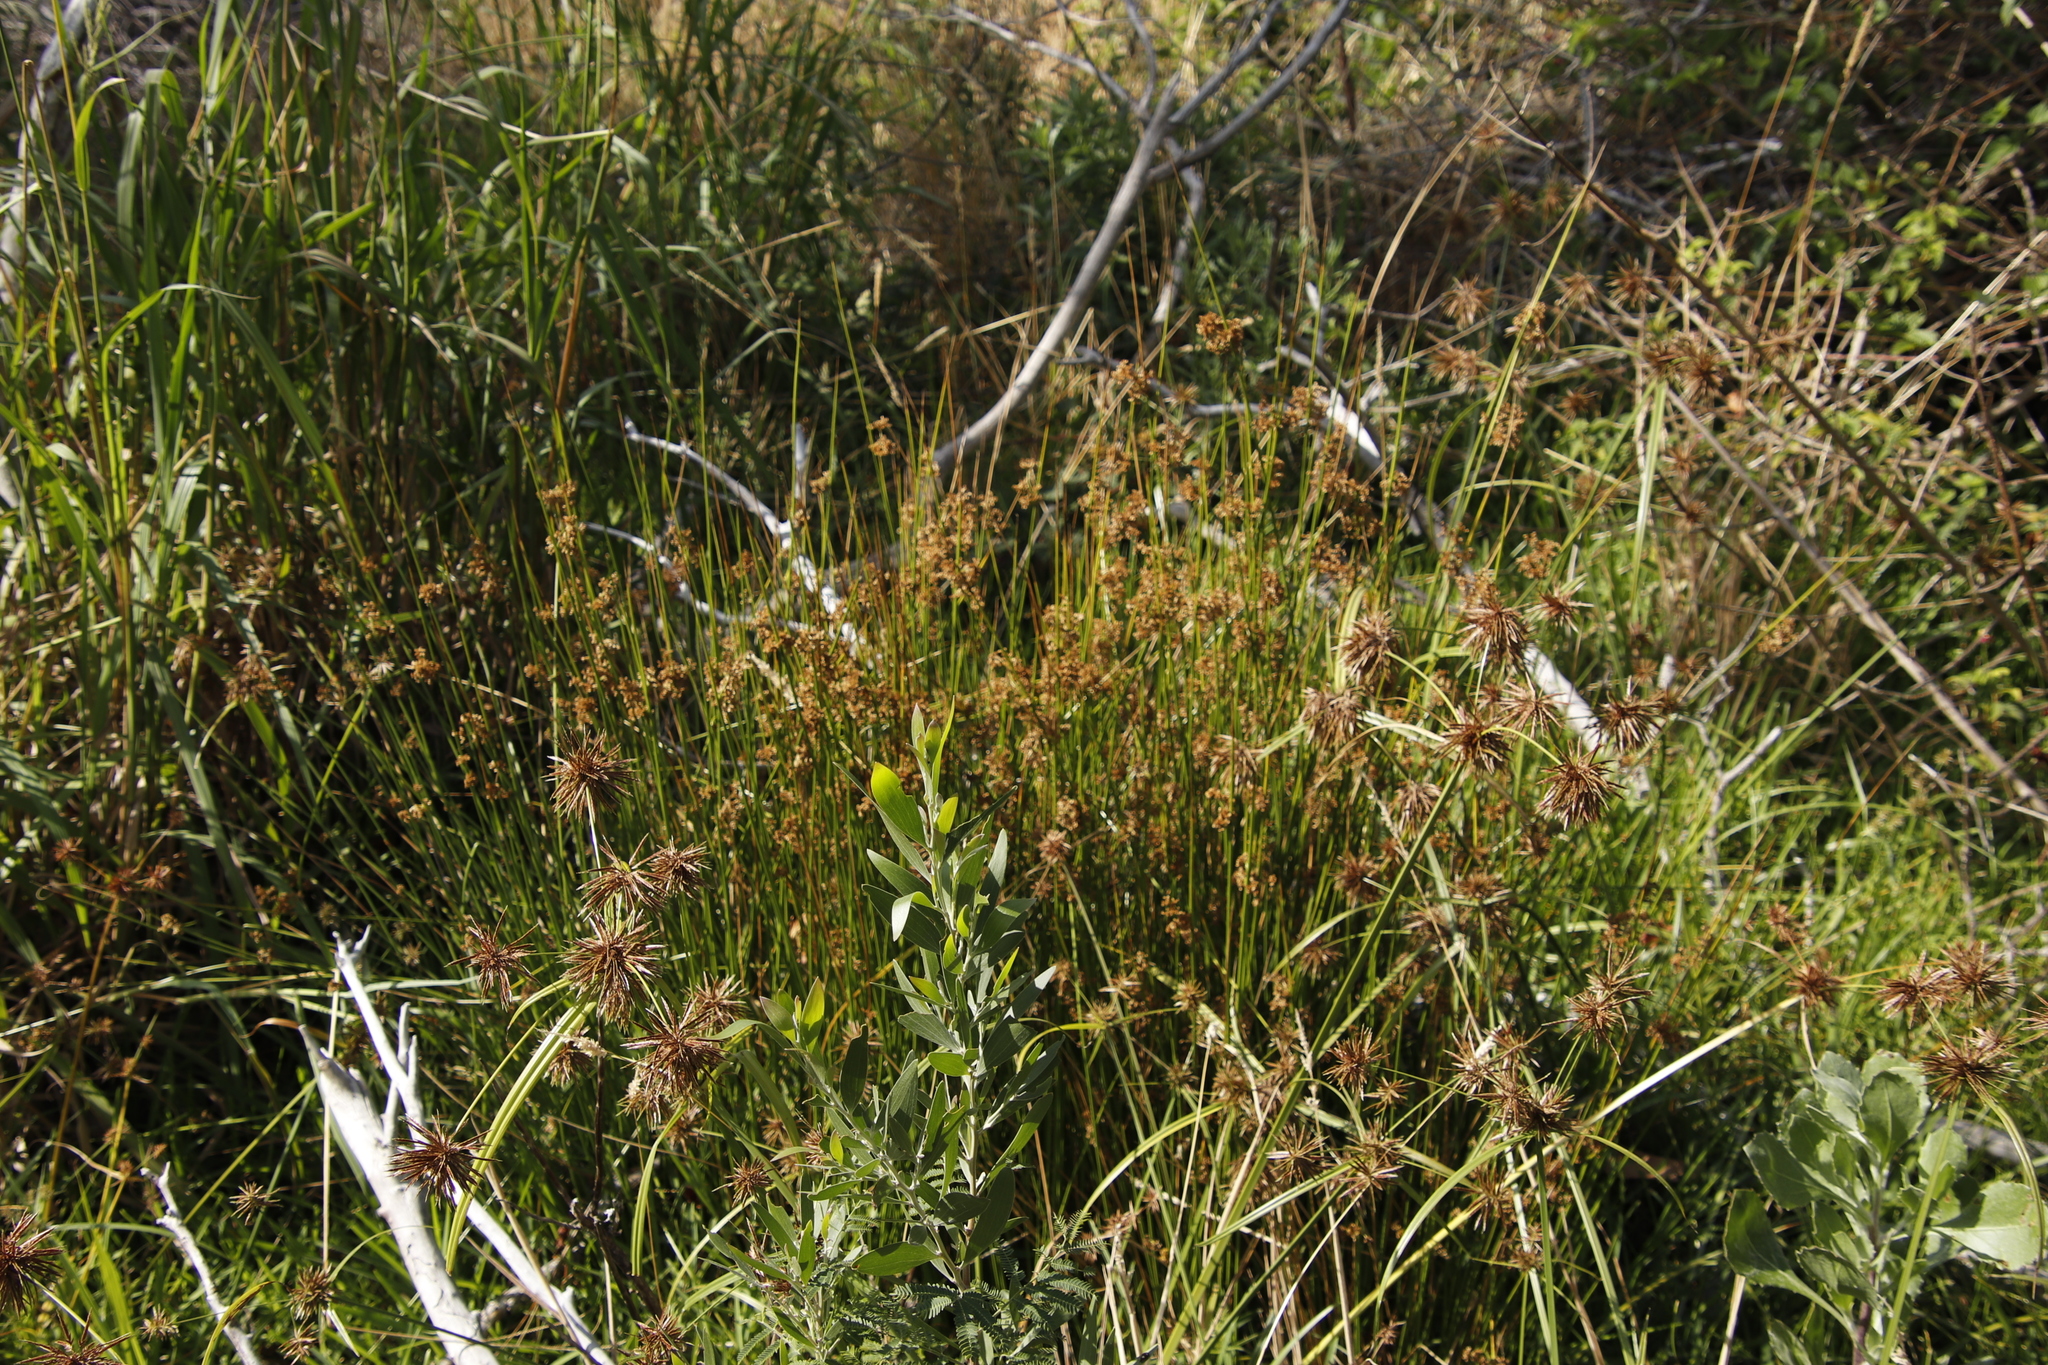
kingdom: Plantae
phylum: Tracheophyta
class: Liliopsida
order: Poales
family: Juncaceae
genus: Juncus
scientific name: Juncus effusus
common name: Soft rush
